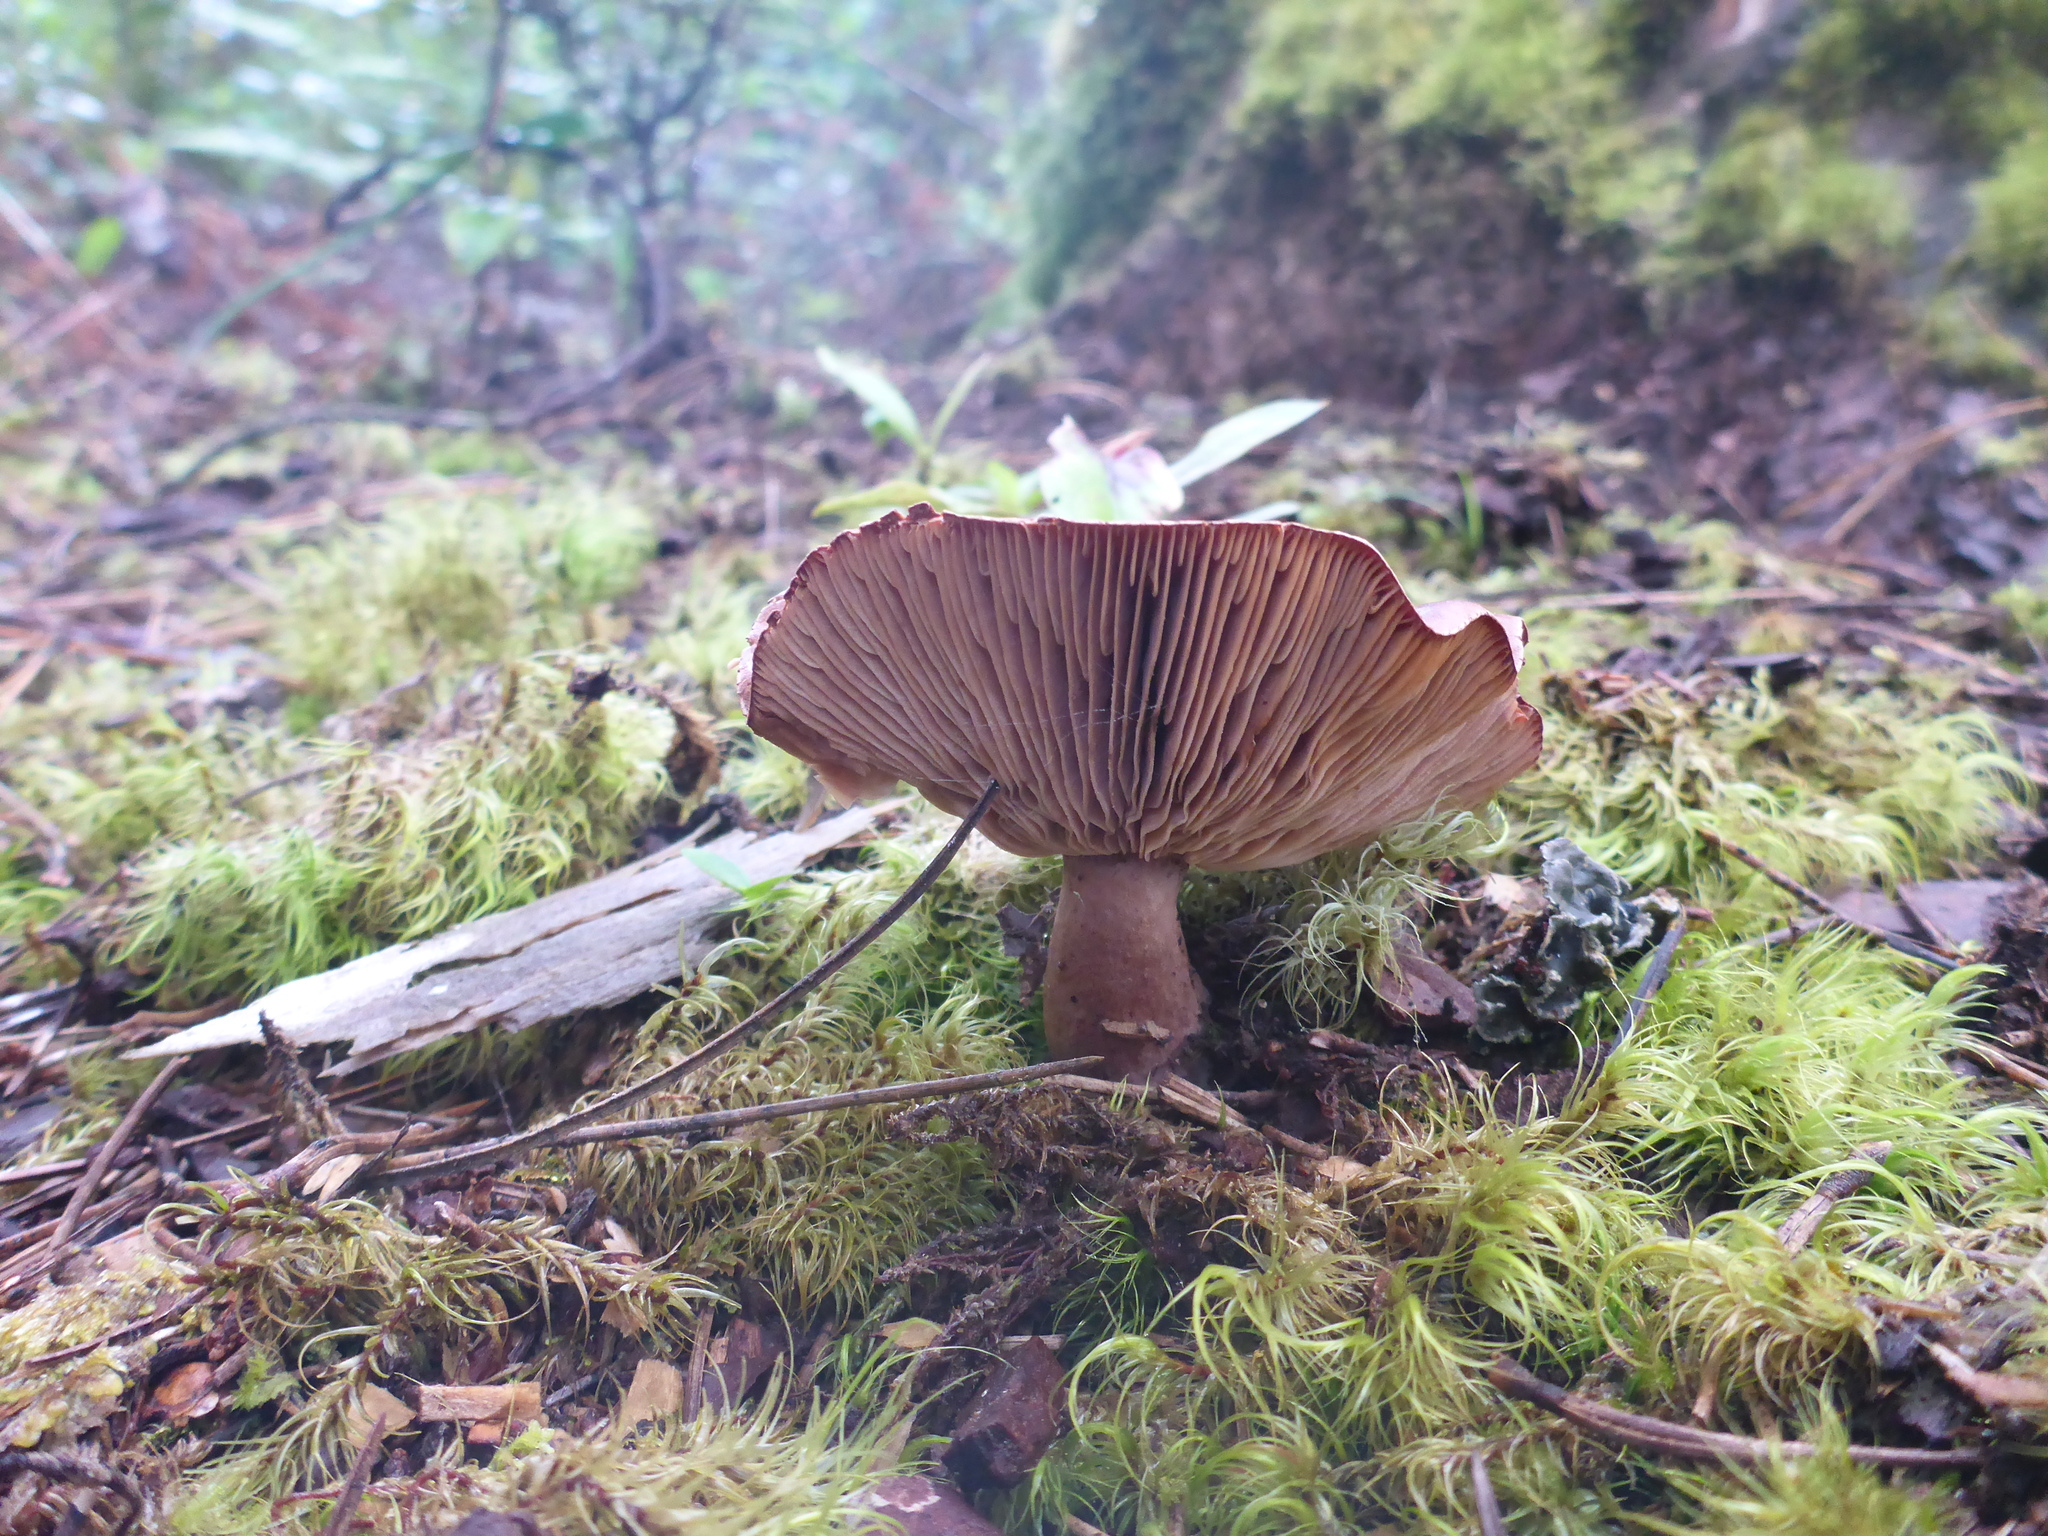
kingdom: Fungi
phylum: Basidiomycota
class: Agaricomycetes
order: Russulales
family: Russulaceae
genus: Lactarius
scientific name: Lactarius rufus
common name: Rufous milk-cap
